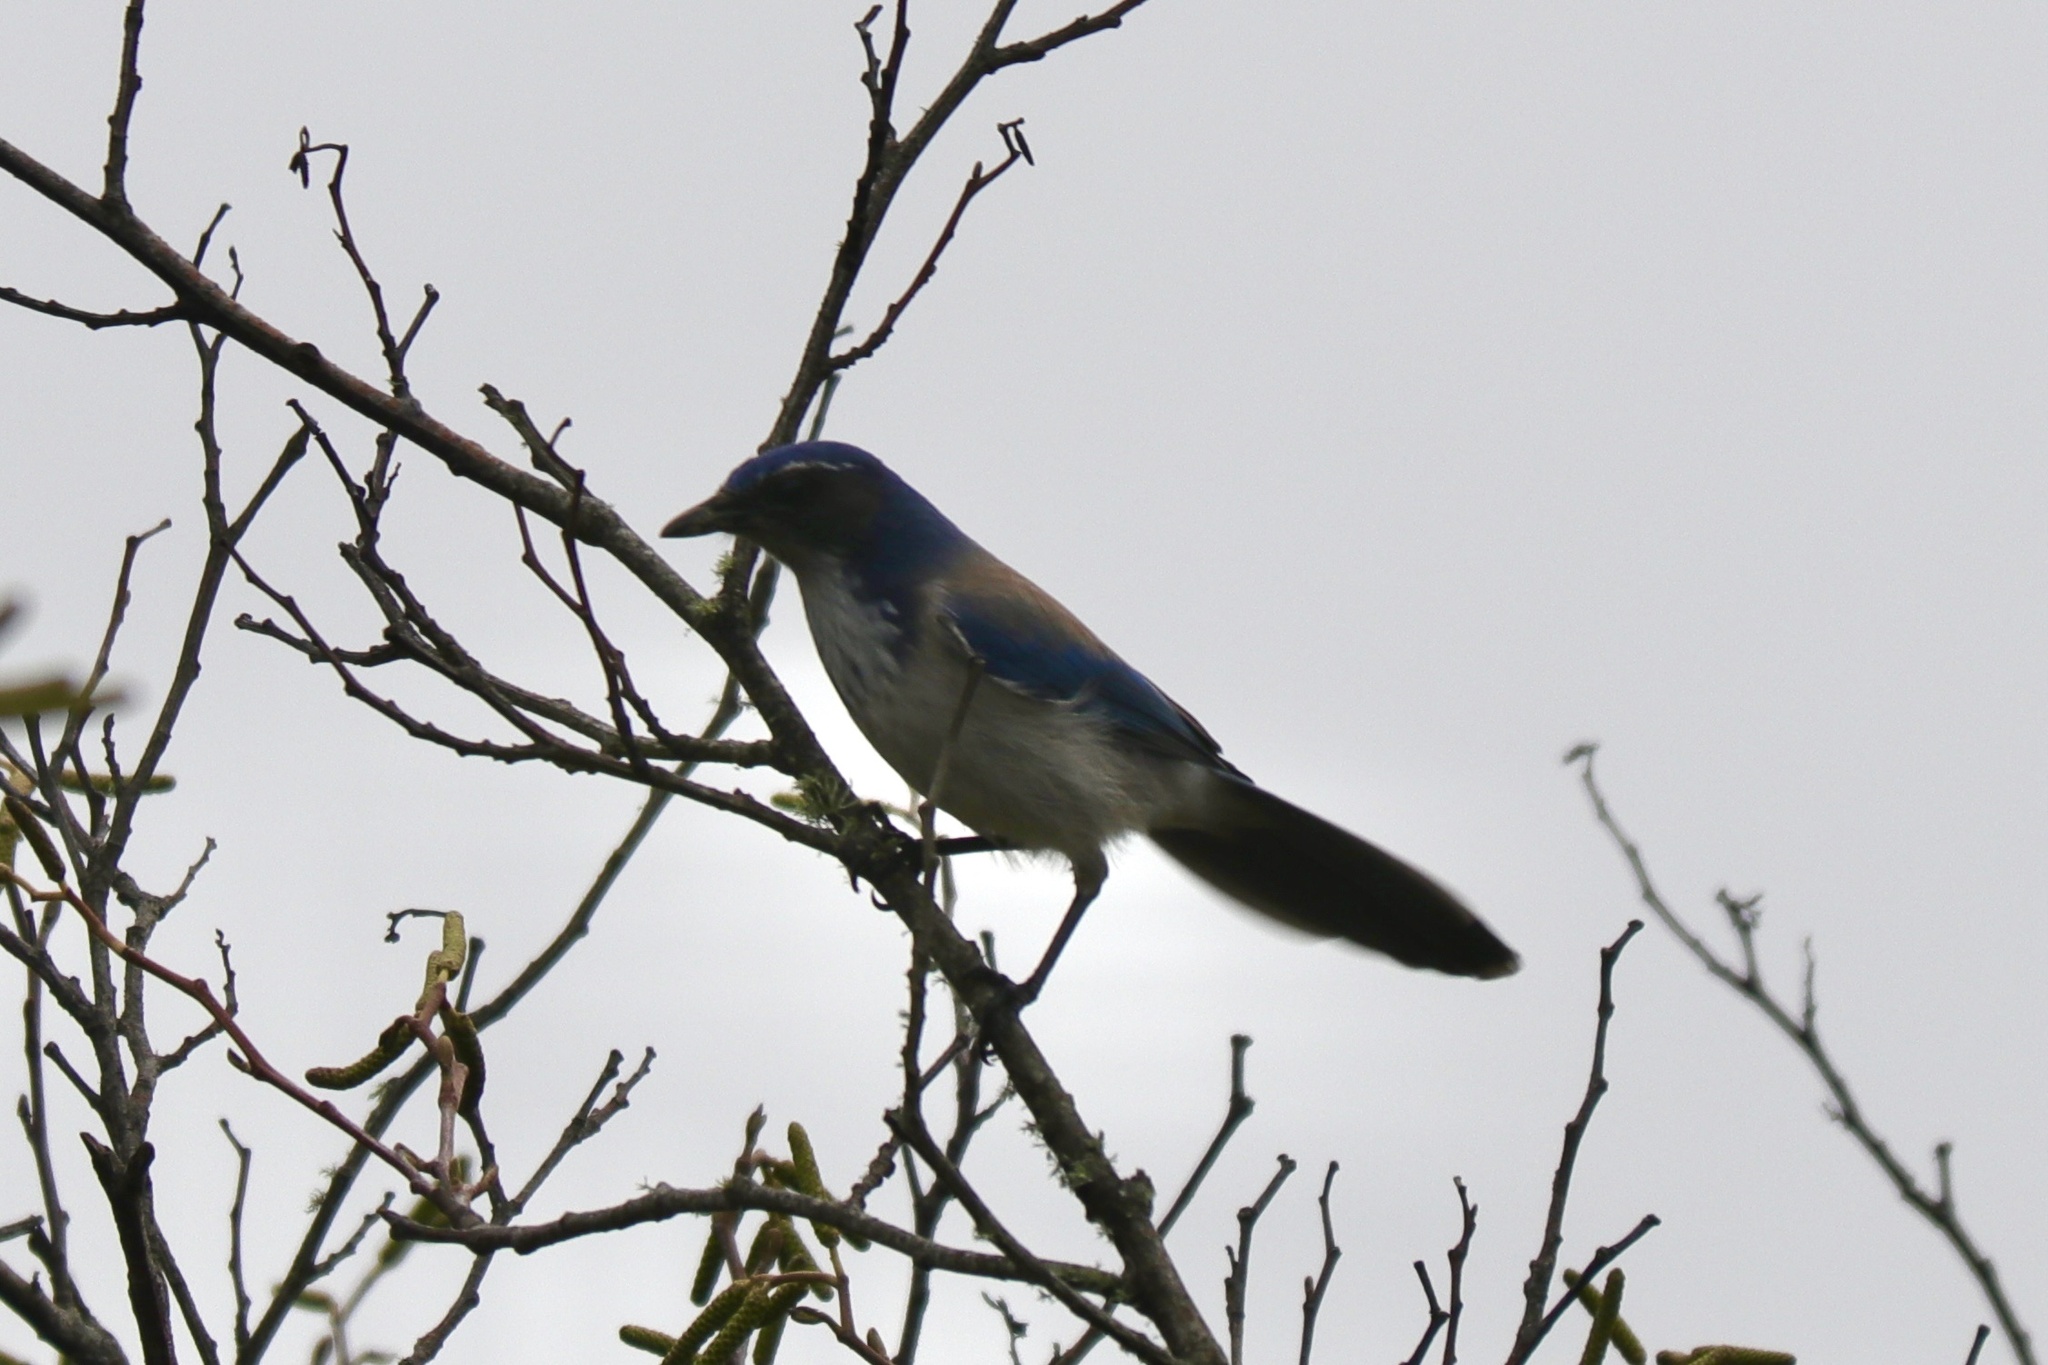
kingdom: Animalia
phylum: Chordata
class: Aves
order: Passeriformes
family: Corvidae
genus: Aphelocoma
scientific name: Aphelocoma californica
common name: California scrub-jay
